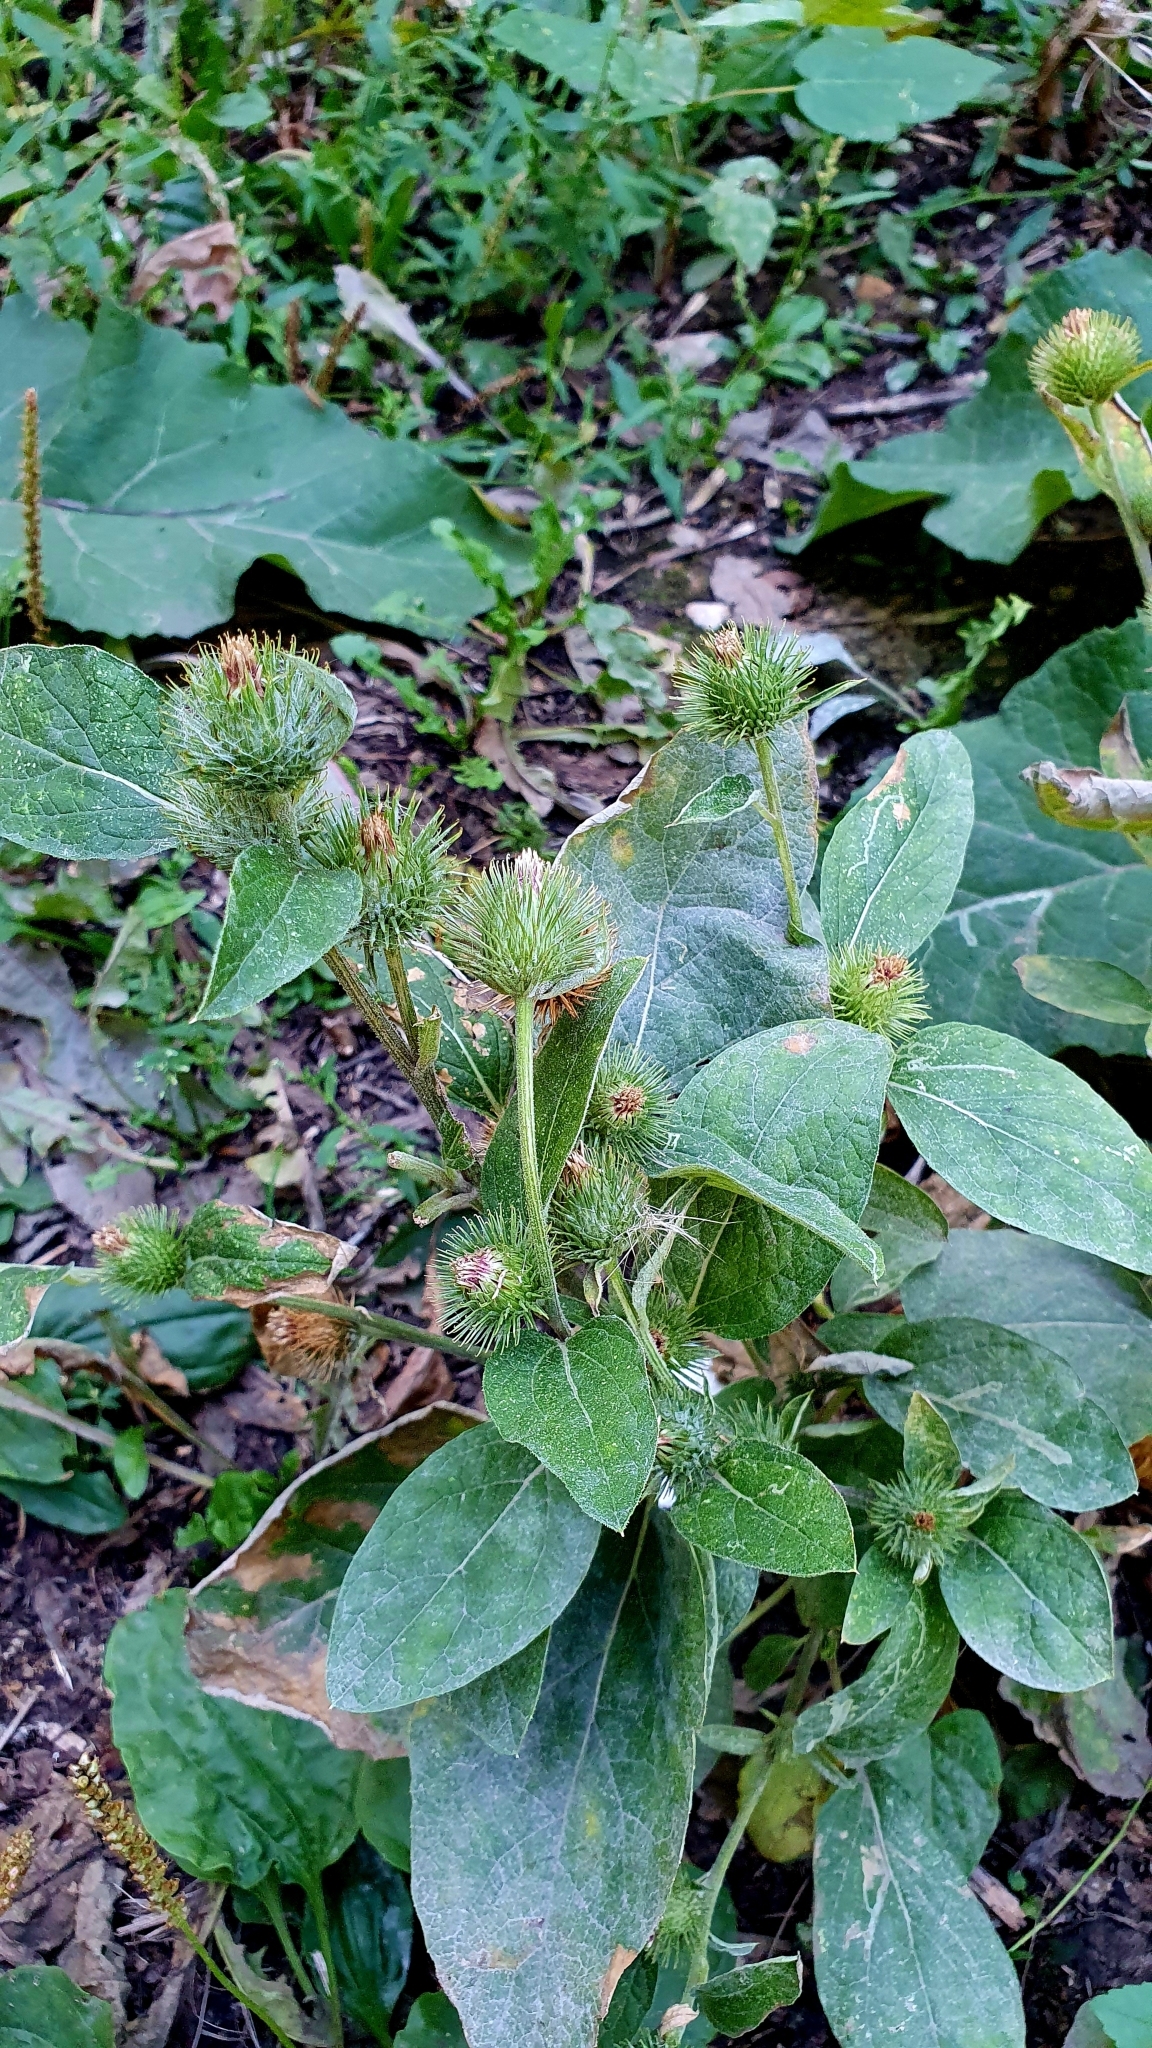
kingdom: Plantae
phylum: Tracheophyta
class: Magnoliopsida
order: Asterales
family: Asteraceae
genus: Arctium
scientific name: Arctium minus
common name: Lesser burdock
